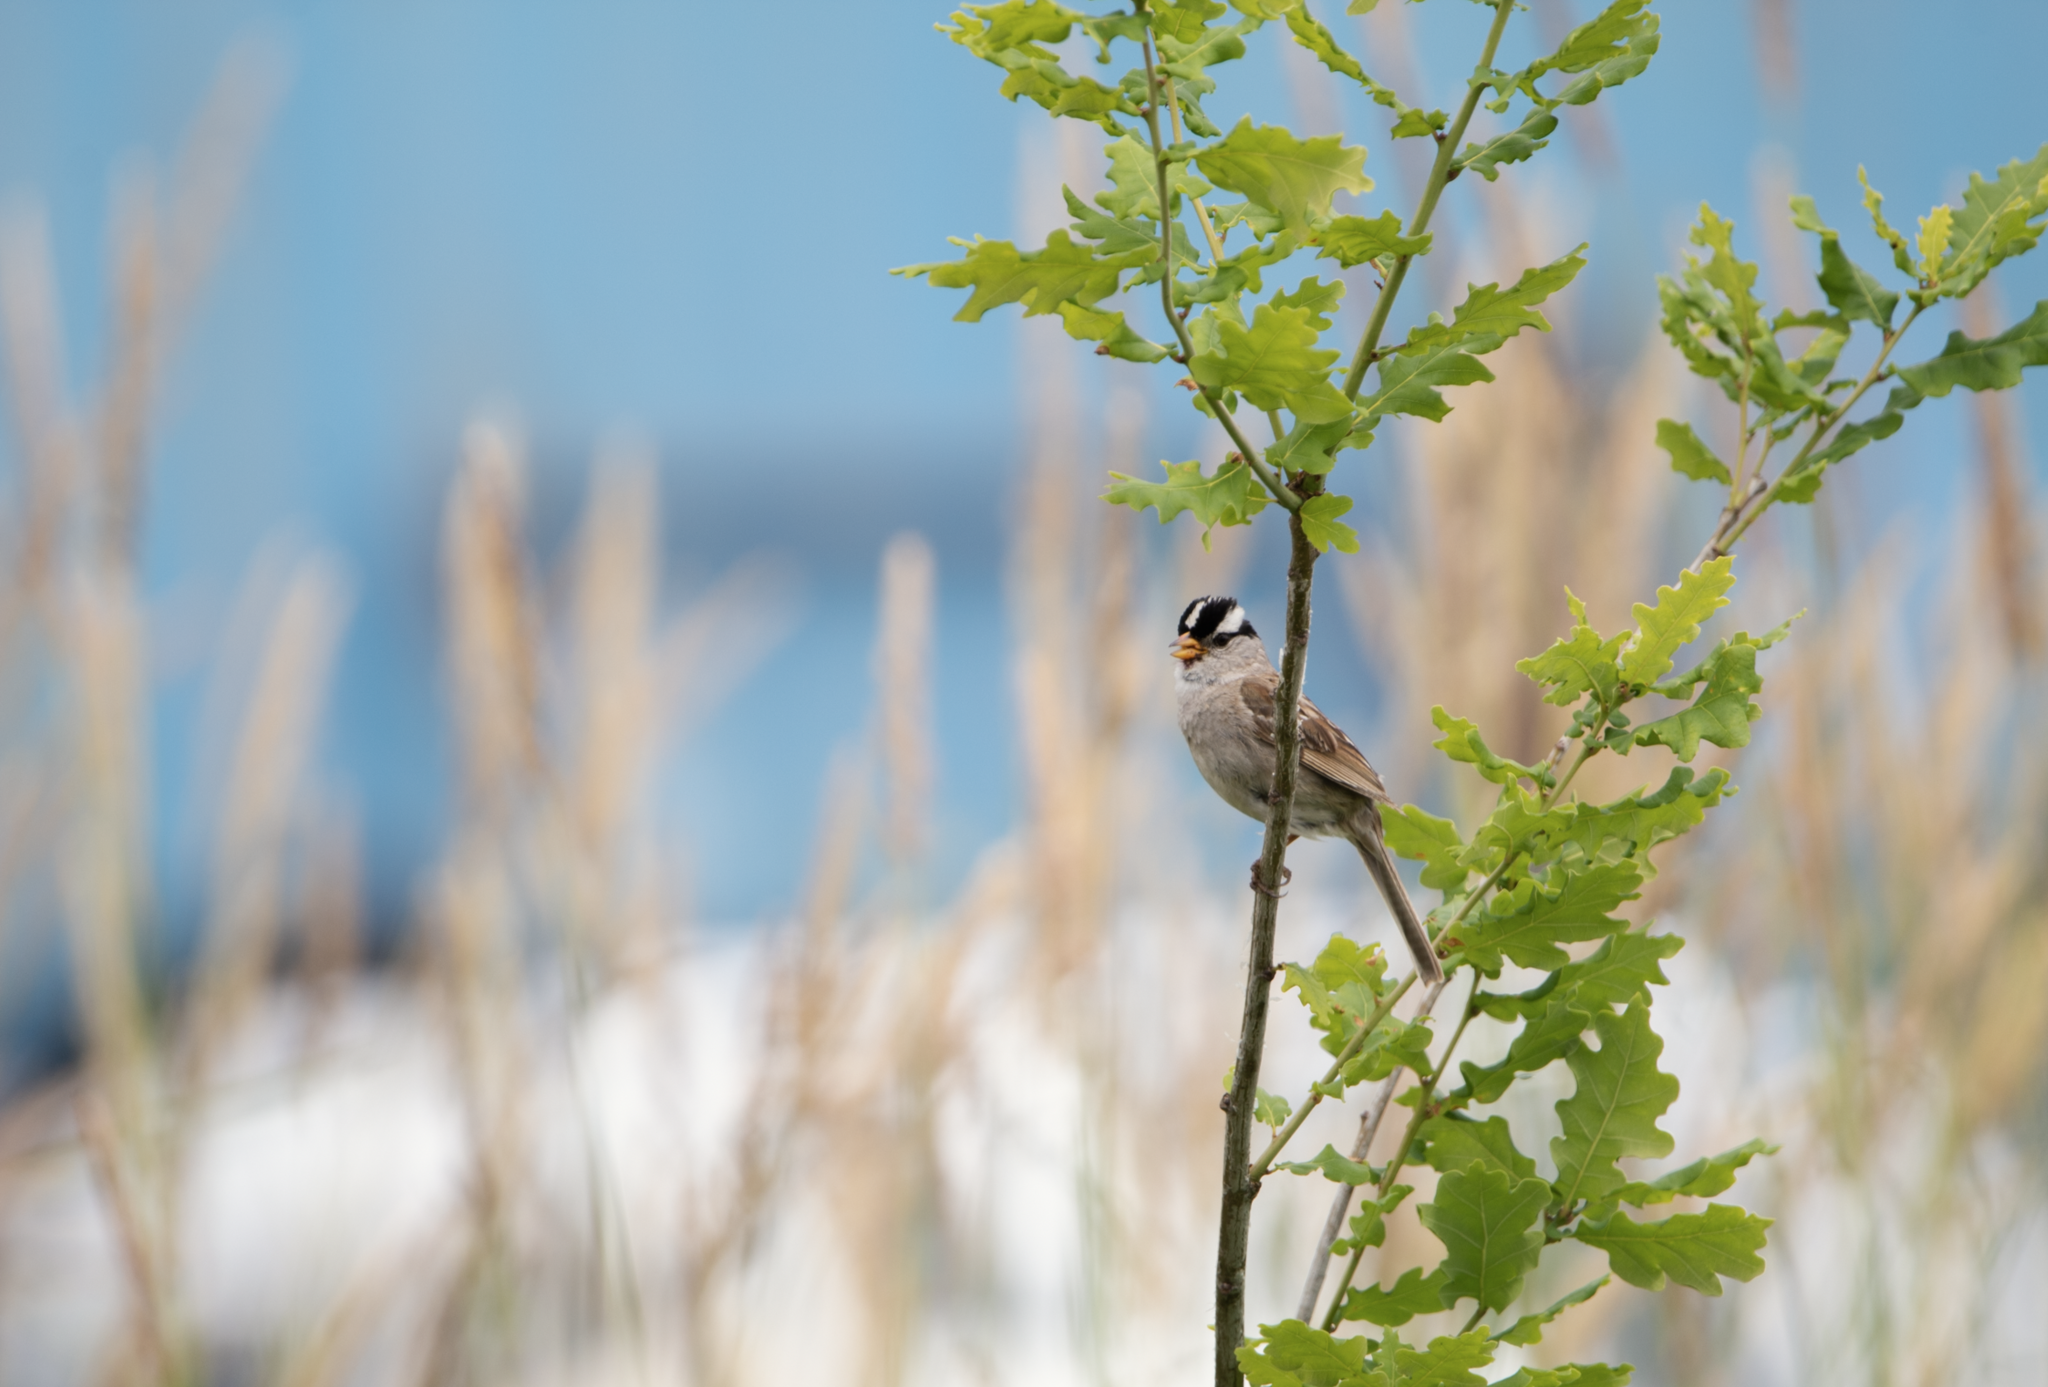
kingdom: Animalia
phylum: Chordata
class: Aves
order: Passeriformes
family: Passerellidae
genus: Zonotrichia
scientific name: Zonotrichia leucophrys
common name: White-crowned sparrow
